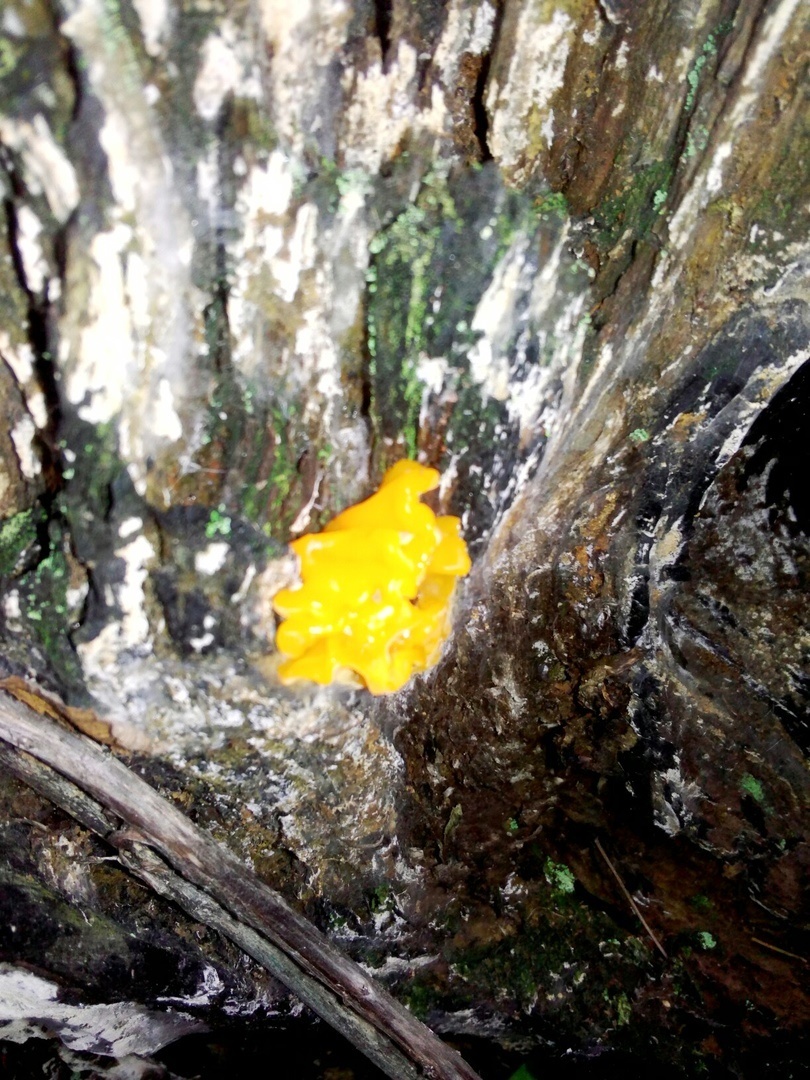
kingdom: Fungi
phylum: Basidiomycota
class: Dacrymycetes
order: Dacrymycetales
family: Dacrymycetaceae
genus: Dacrymyces
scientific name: Dacrymyces chrysospermus
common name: Orange jelly spot
